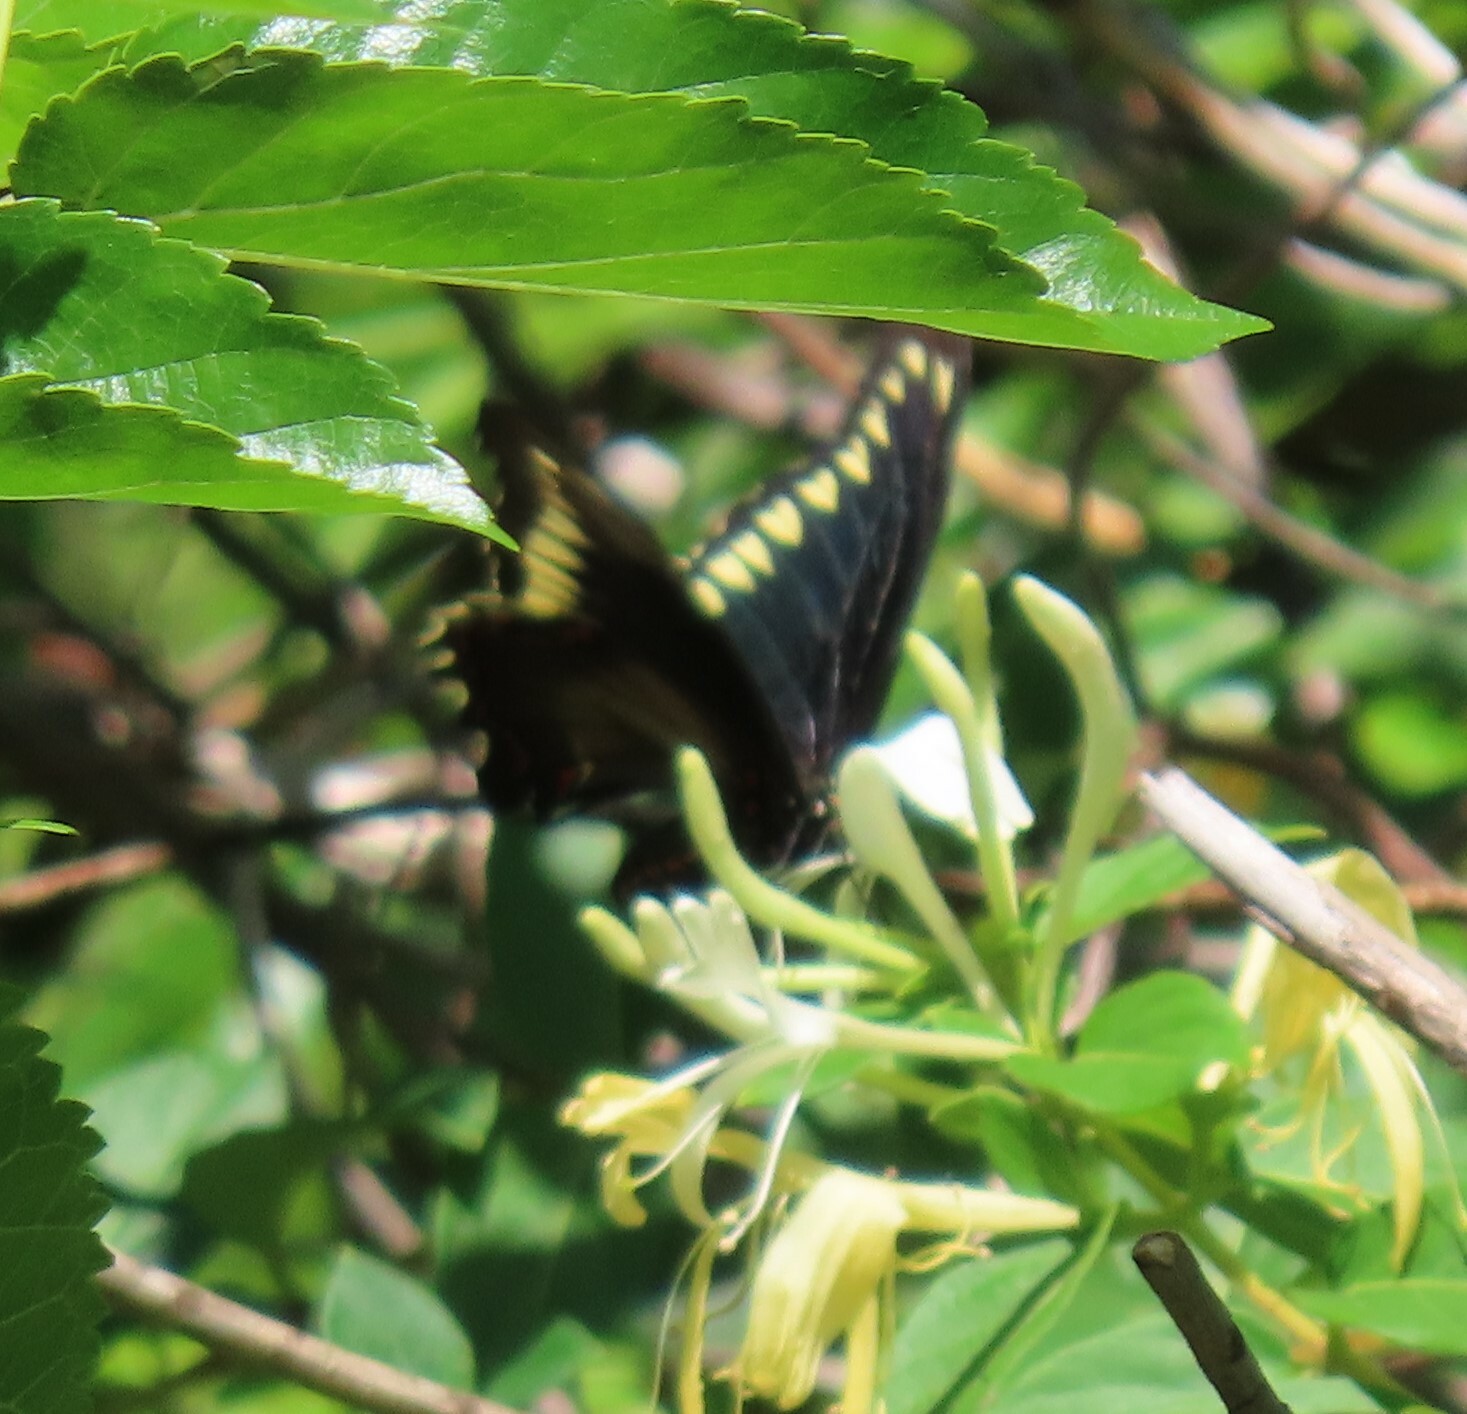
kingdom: Animalia
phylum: Arthropoda
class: Insecta
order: Lepidoptera
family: Papilionidae
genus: Battus
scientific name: Battus polydamas
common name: Polydamas swallowtail
